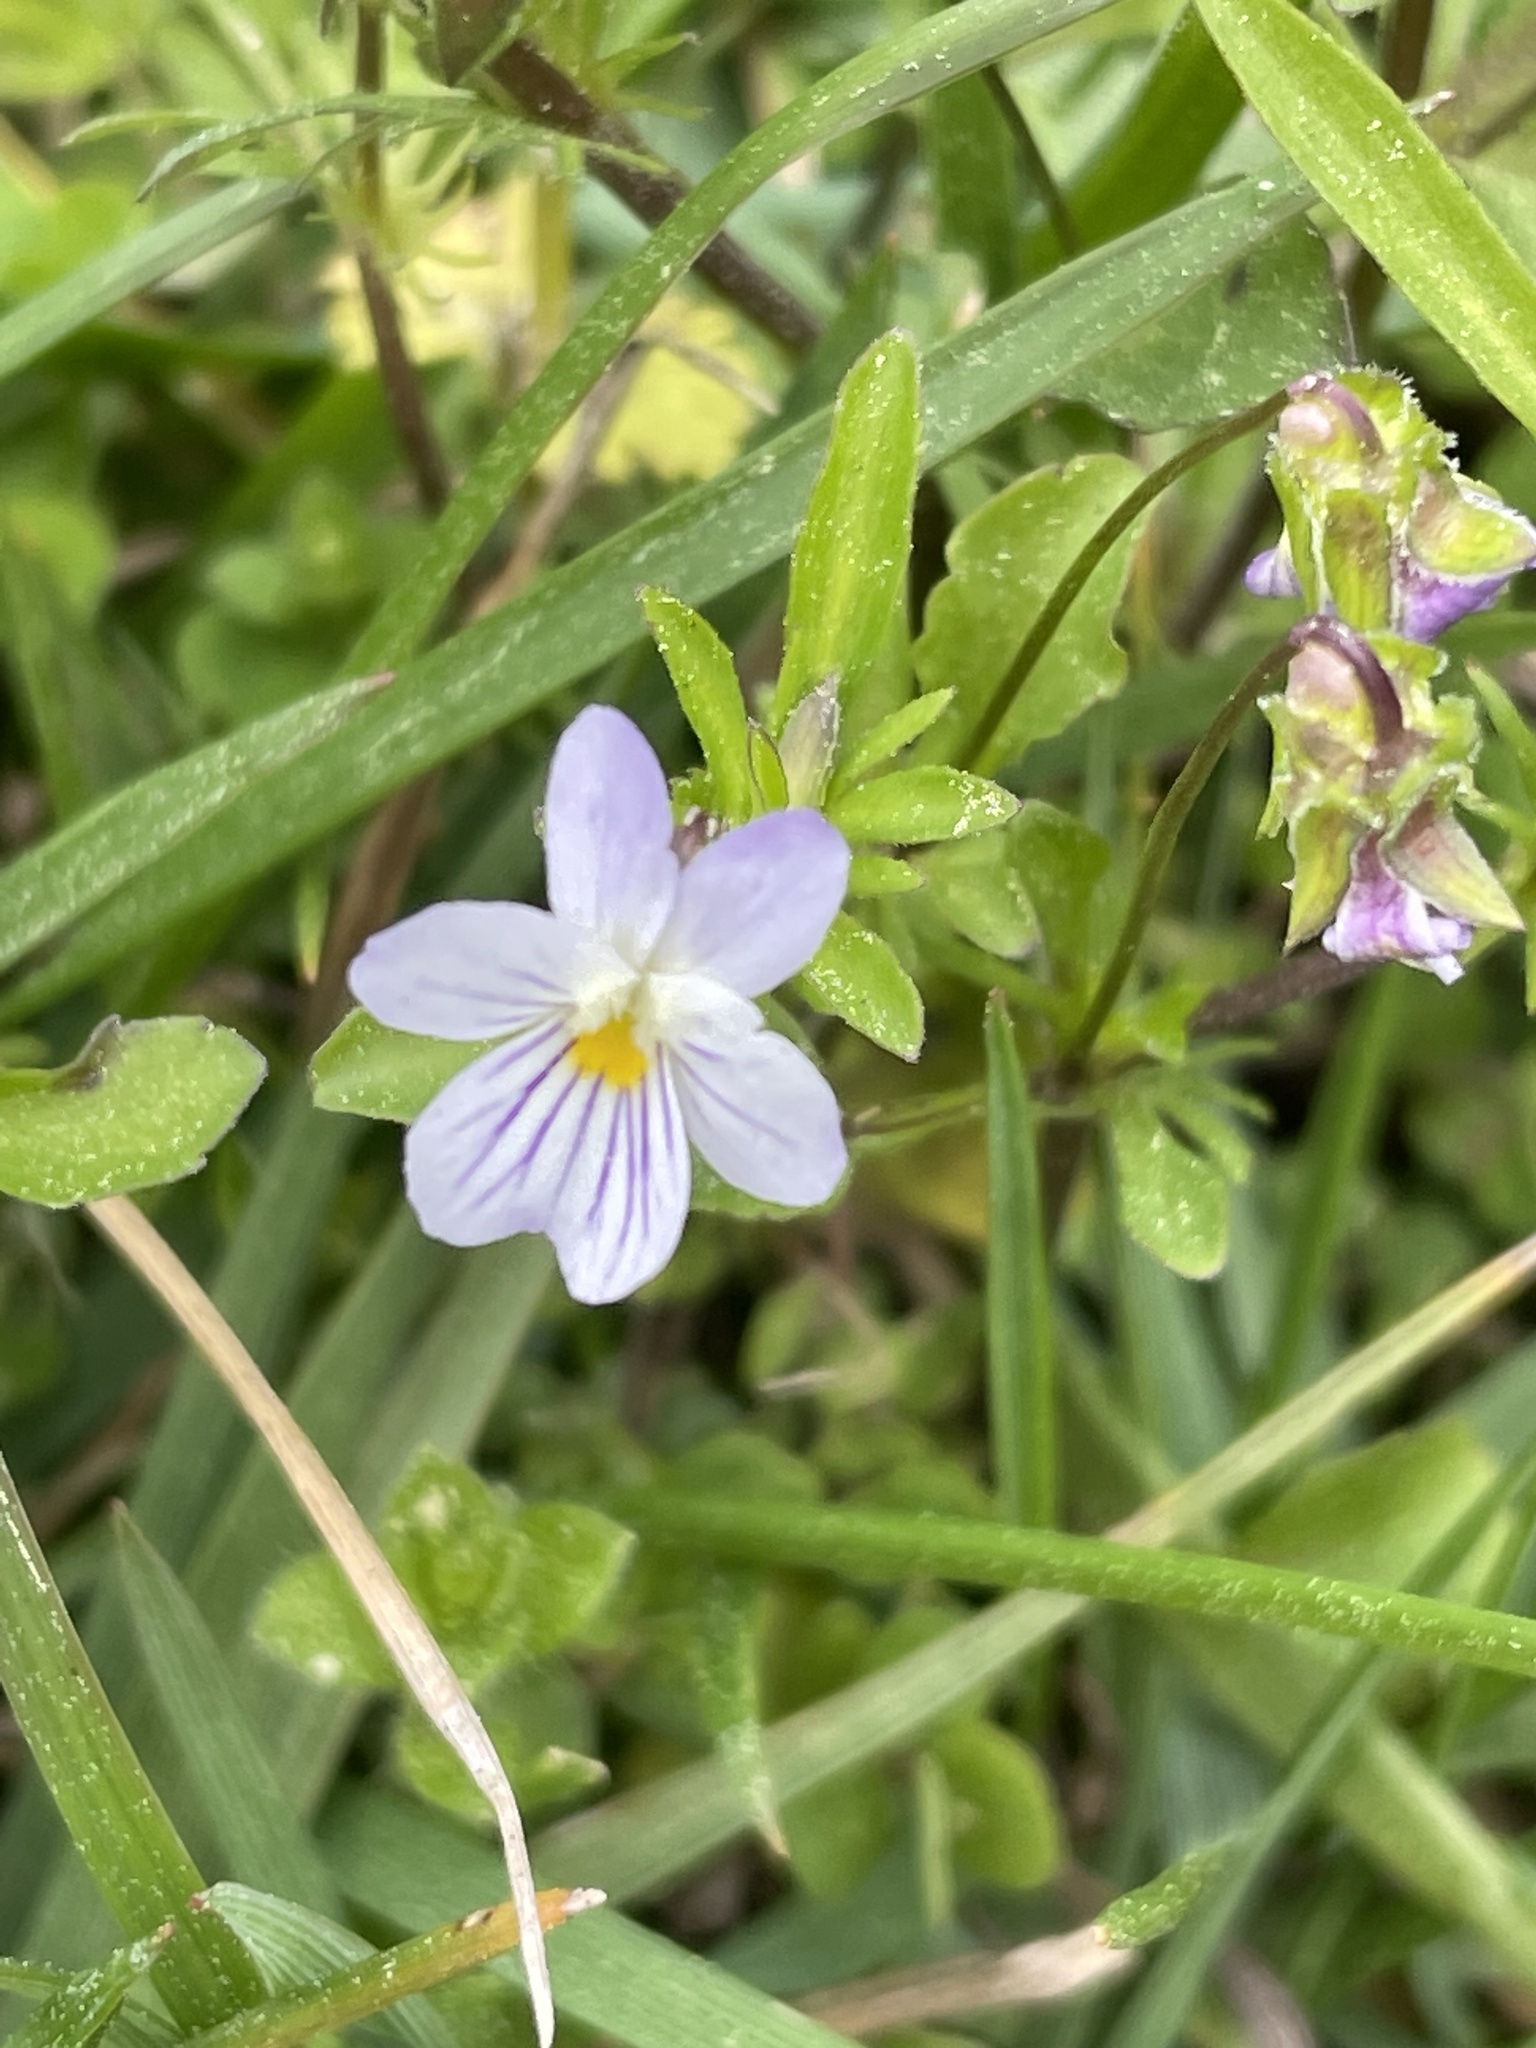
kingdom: Plantae
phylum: Tracheophyta
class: Magnoliopsida
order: Malpighiales
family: Violaceae
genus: Viola
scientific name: Viola rafinesquei
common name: American field pansy
